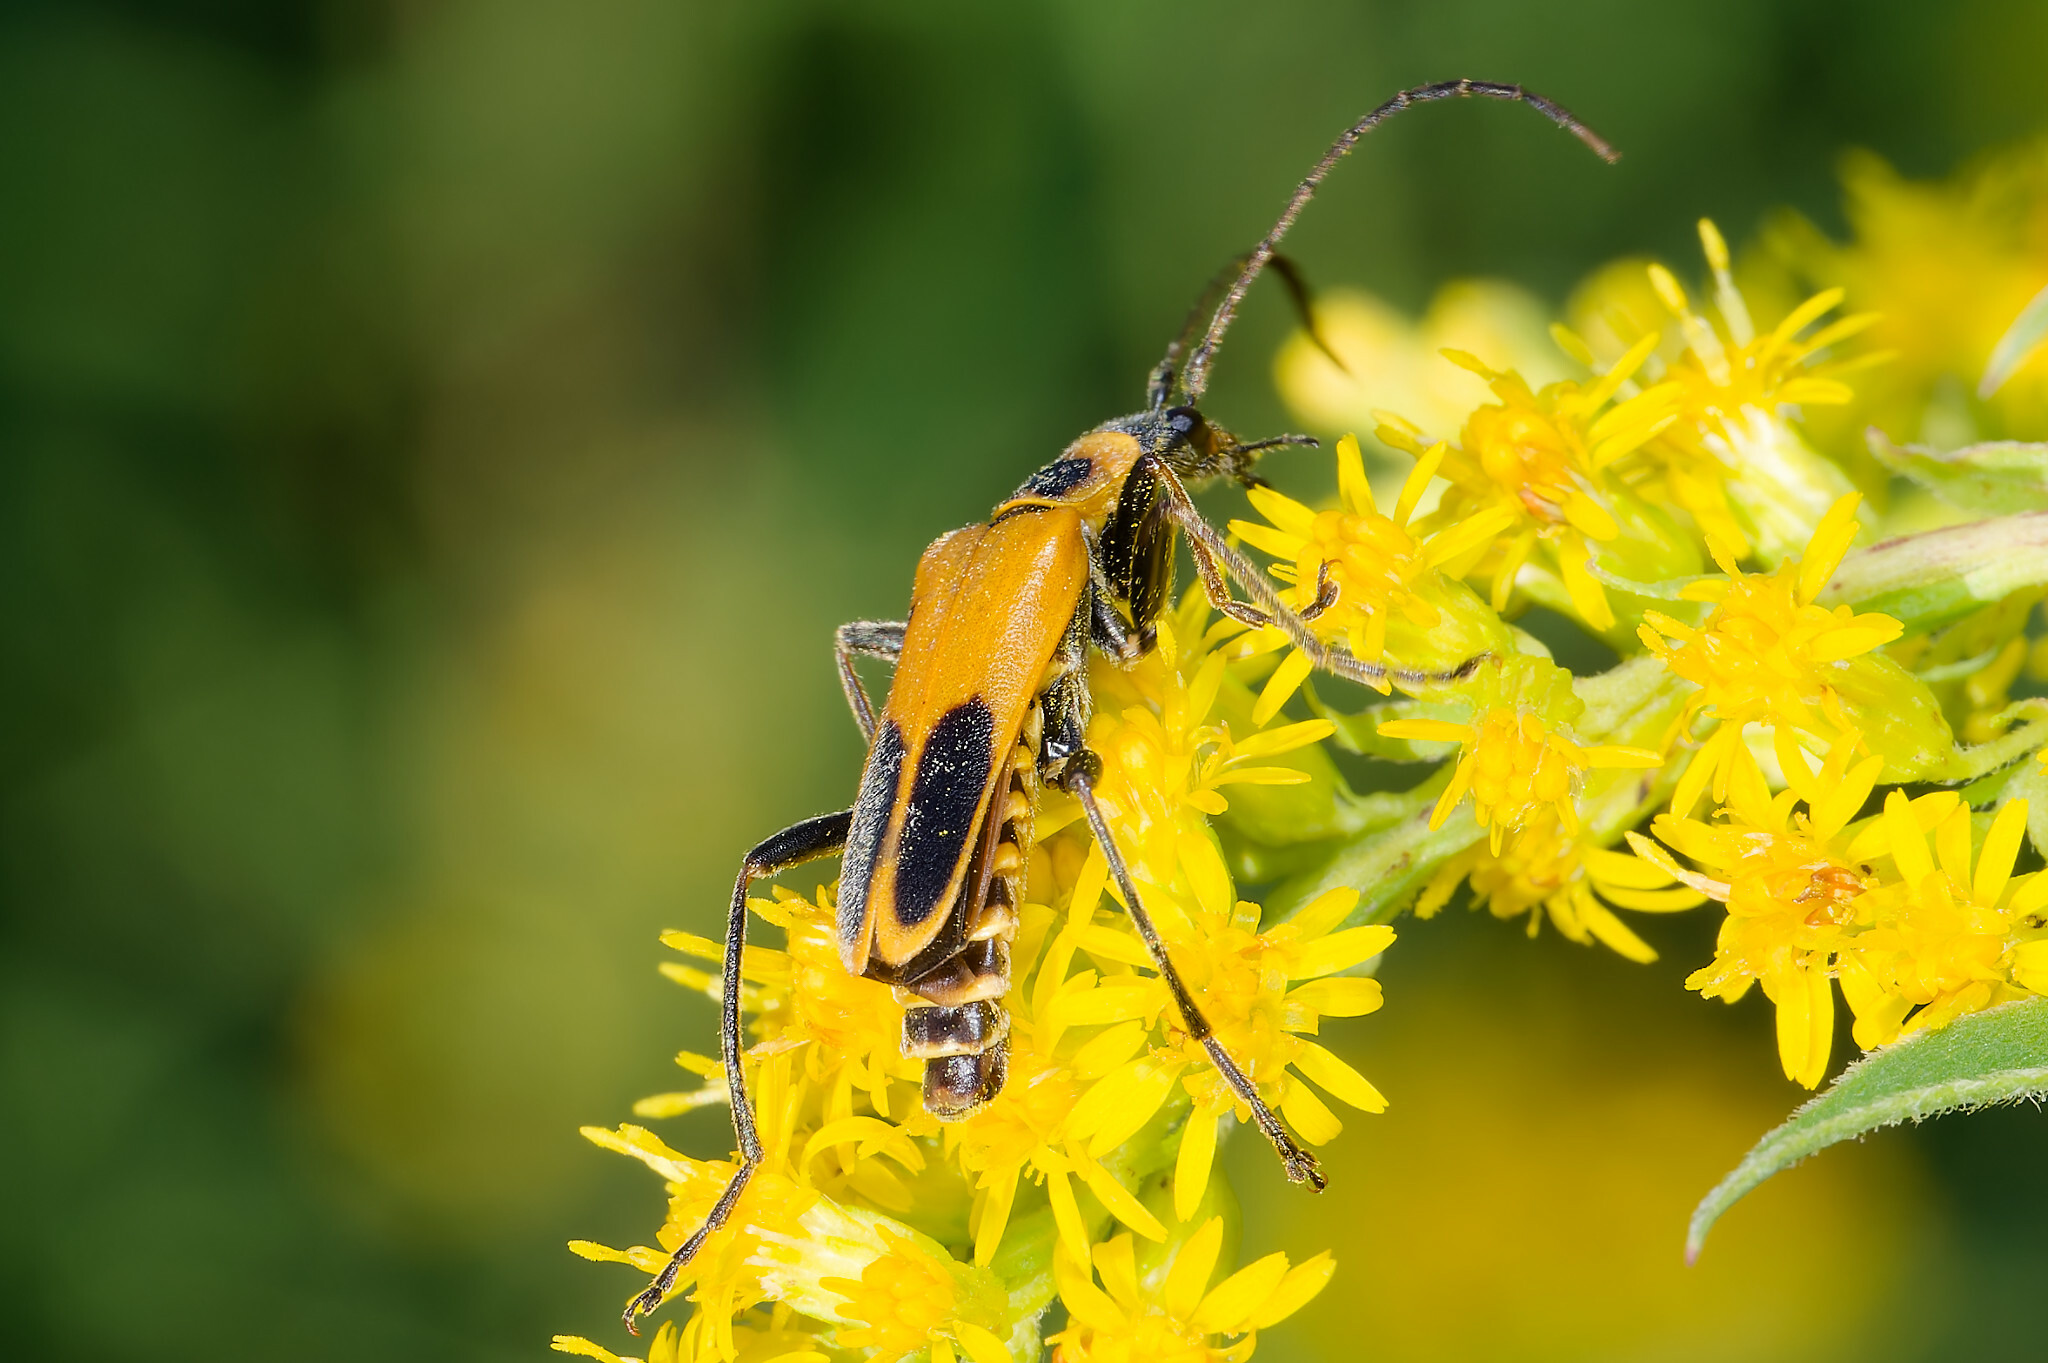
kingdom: Animalia
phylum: Arthropoda
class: Insecta
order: Coleoptera
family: Cantharidae
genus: Chauliognathus
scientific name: Chauliognathus pensylvanicus
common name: Goldenrod soldier beetle
